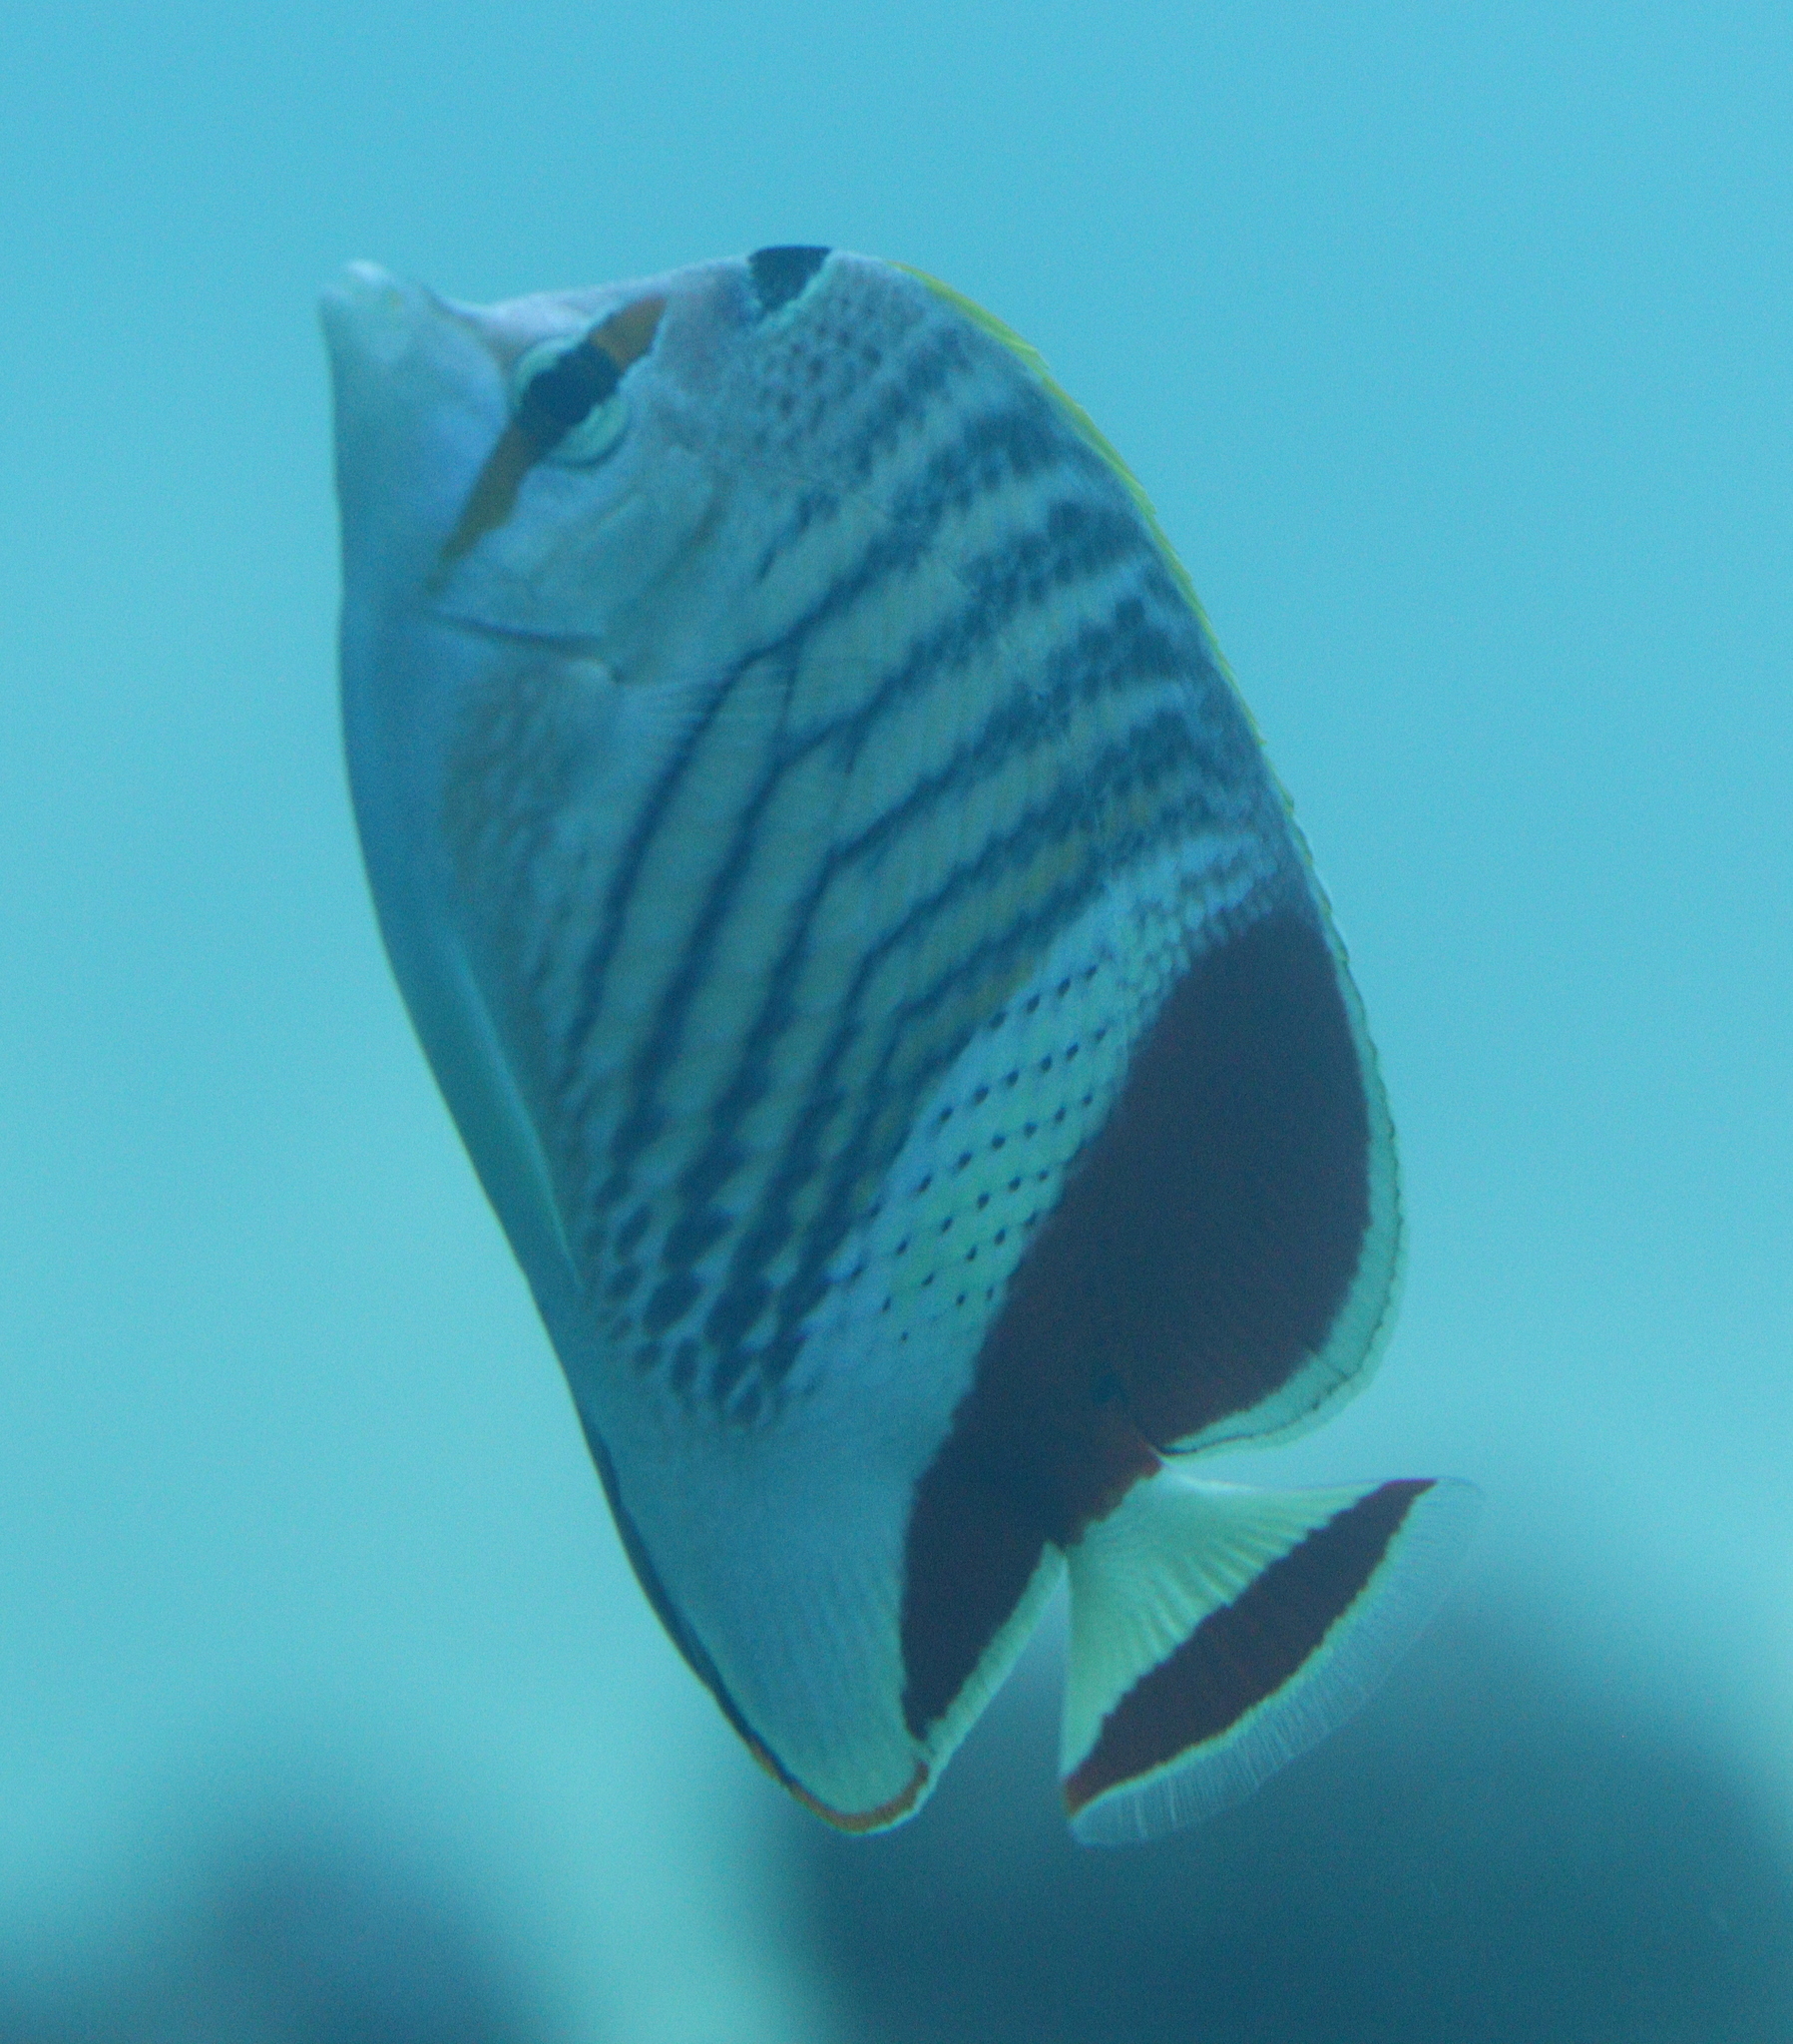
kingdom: Animalia
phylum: Chordata
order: Perciformes
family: Chaetodontidae
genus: Chaetodon
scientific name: Chaetodon paucifasciatus
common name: Crown butterflyfish
